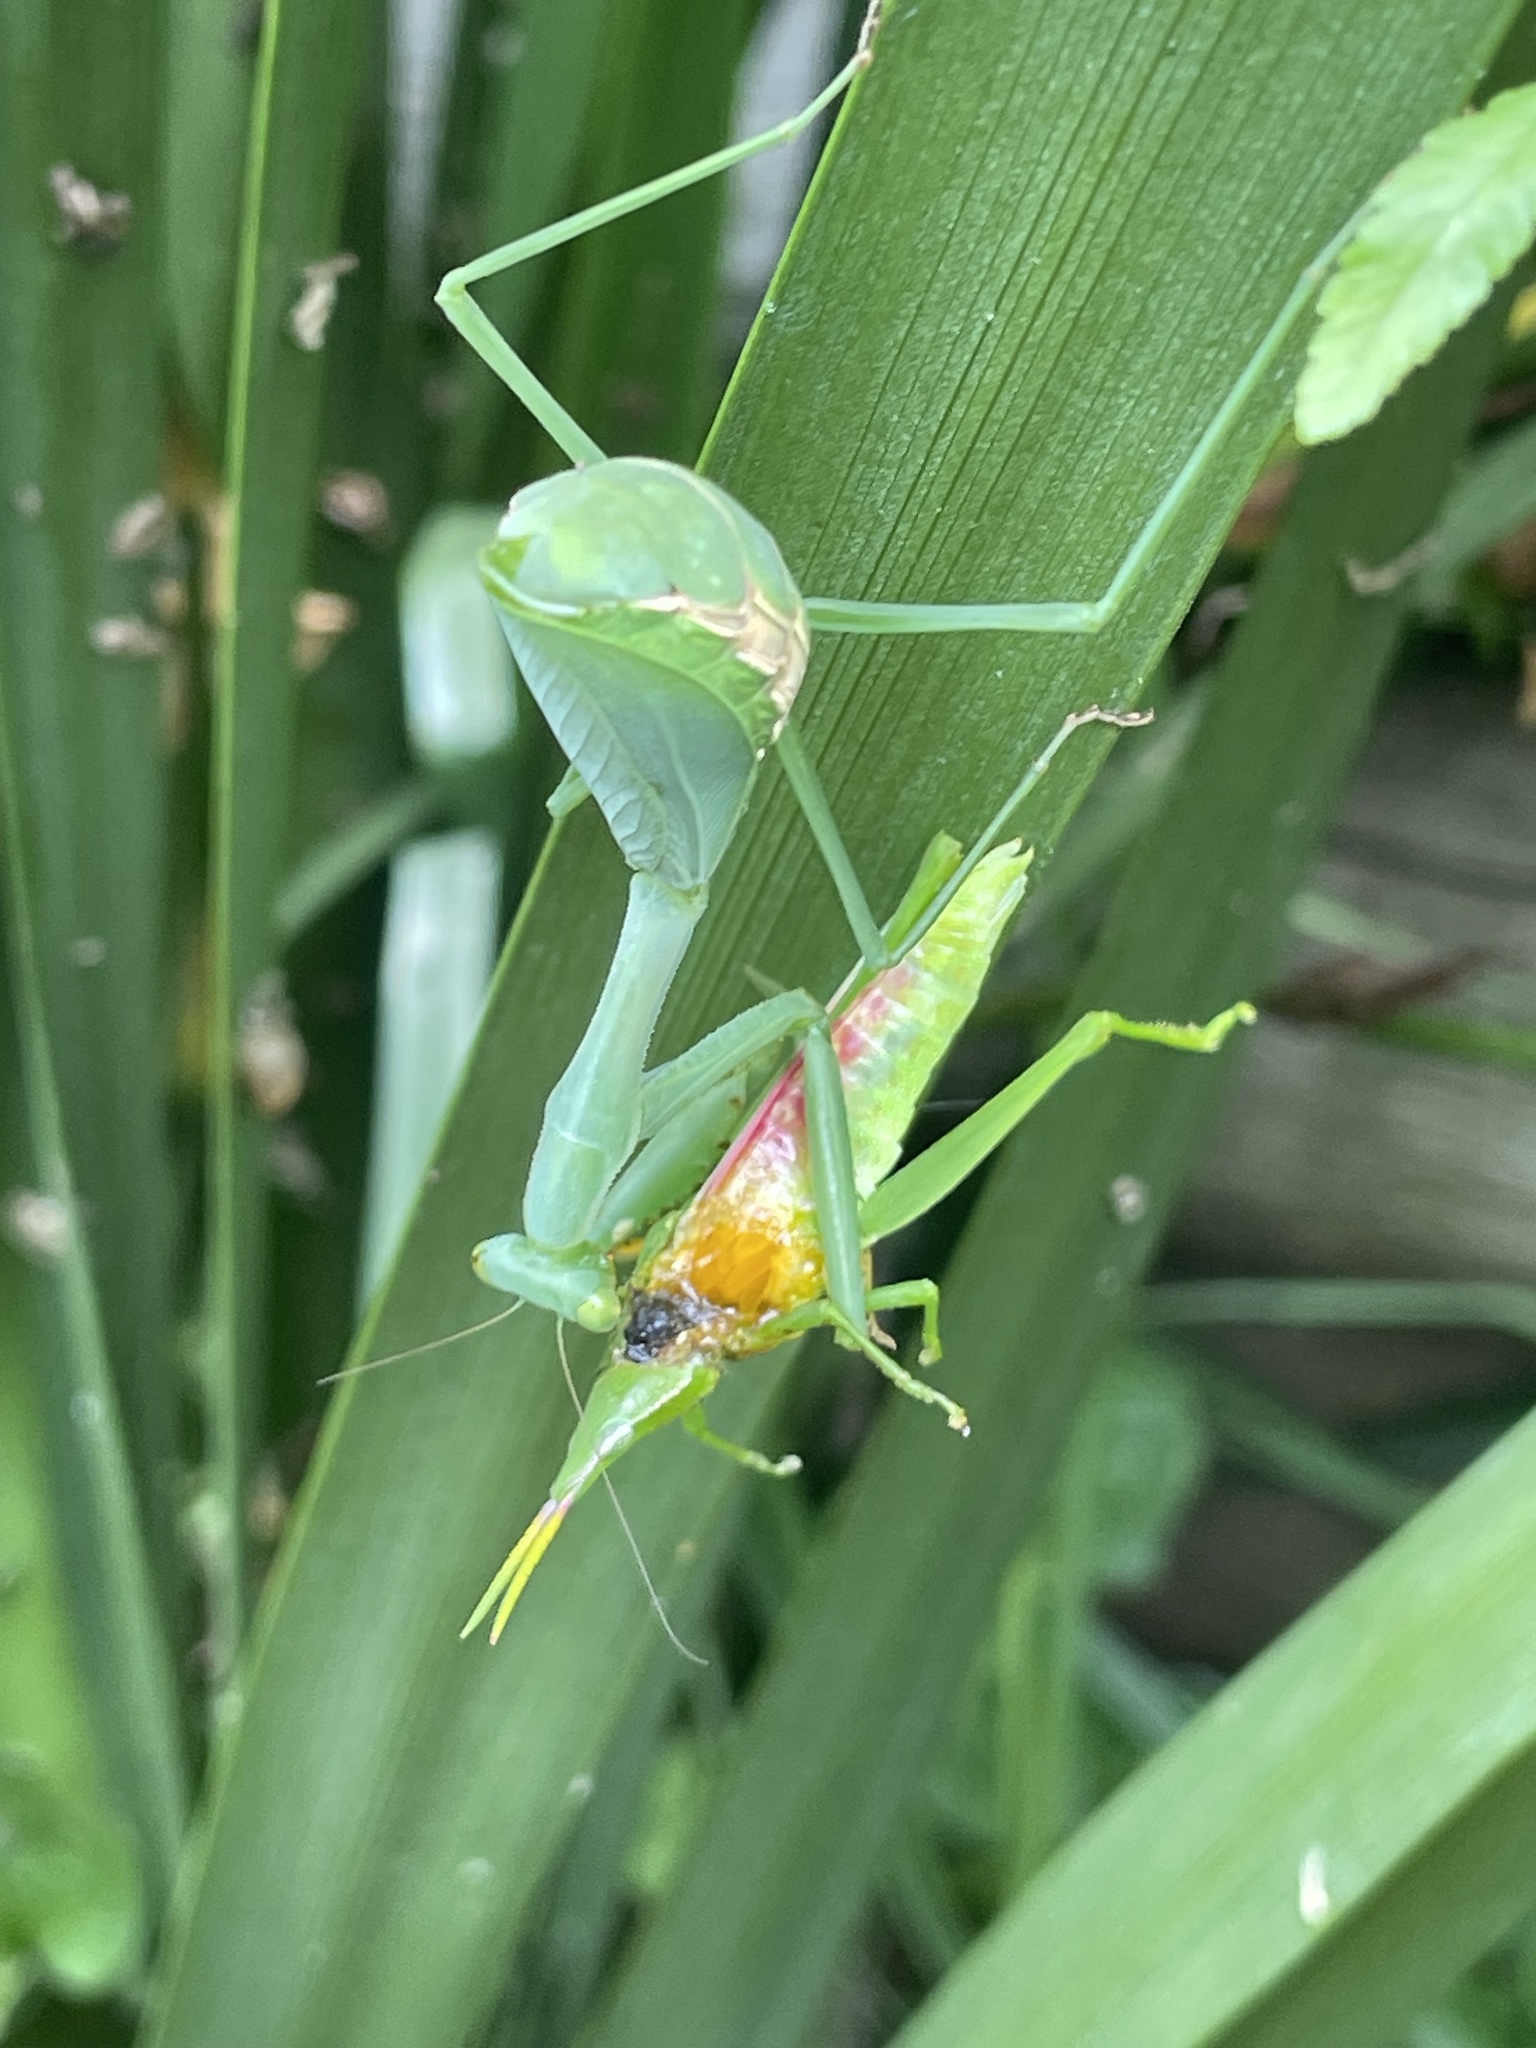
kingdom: Animalia
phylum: Arthropoda
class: Insecta
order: Mantodea
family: Miomantidae
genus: Miomantis
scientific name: Miomantis caffra
